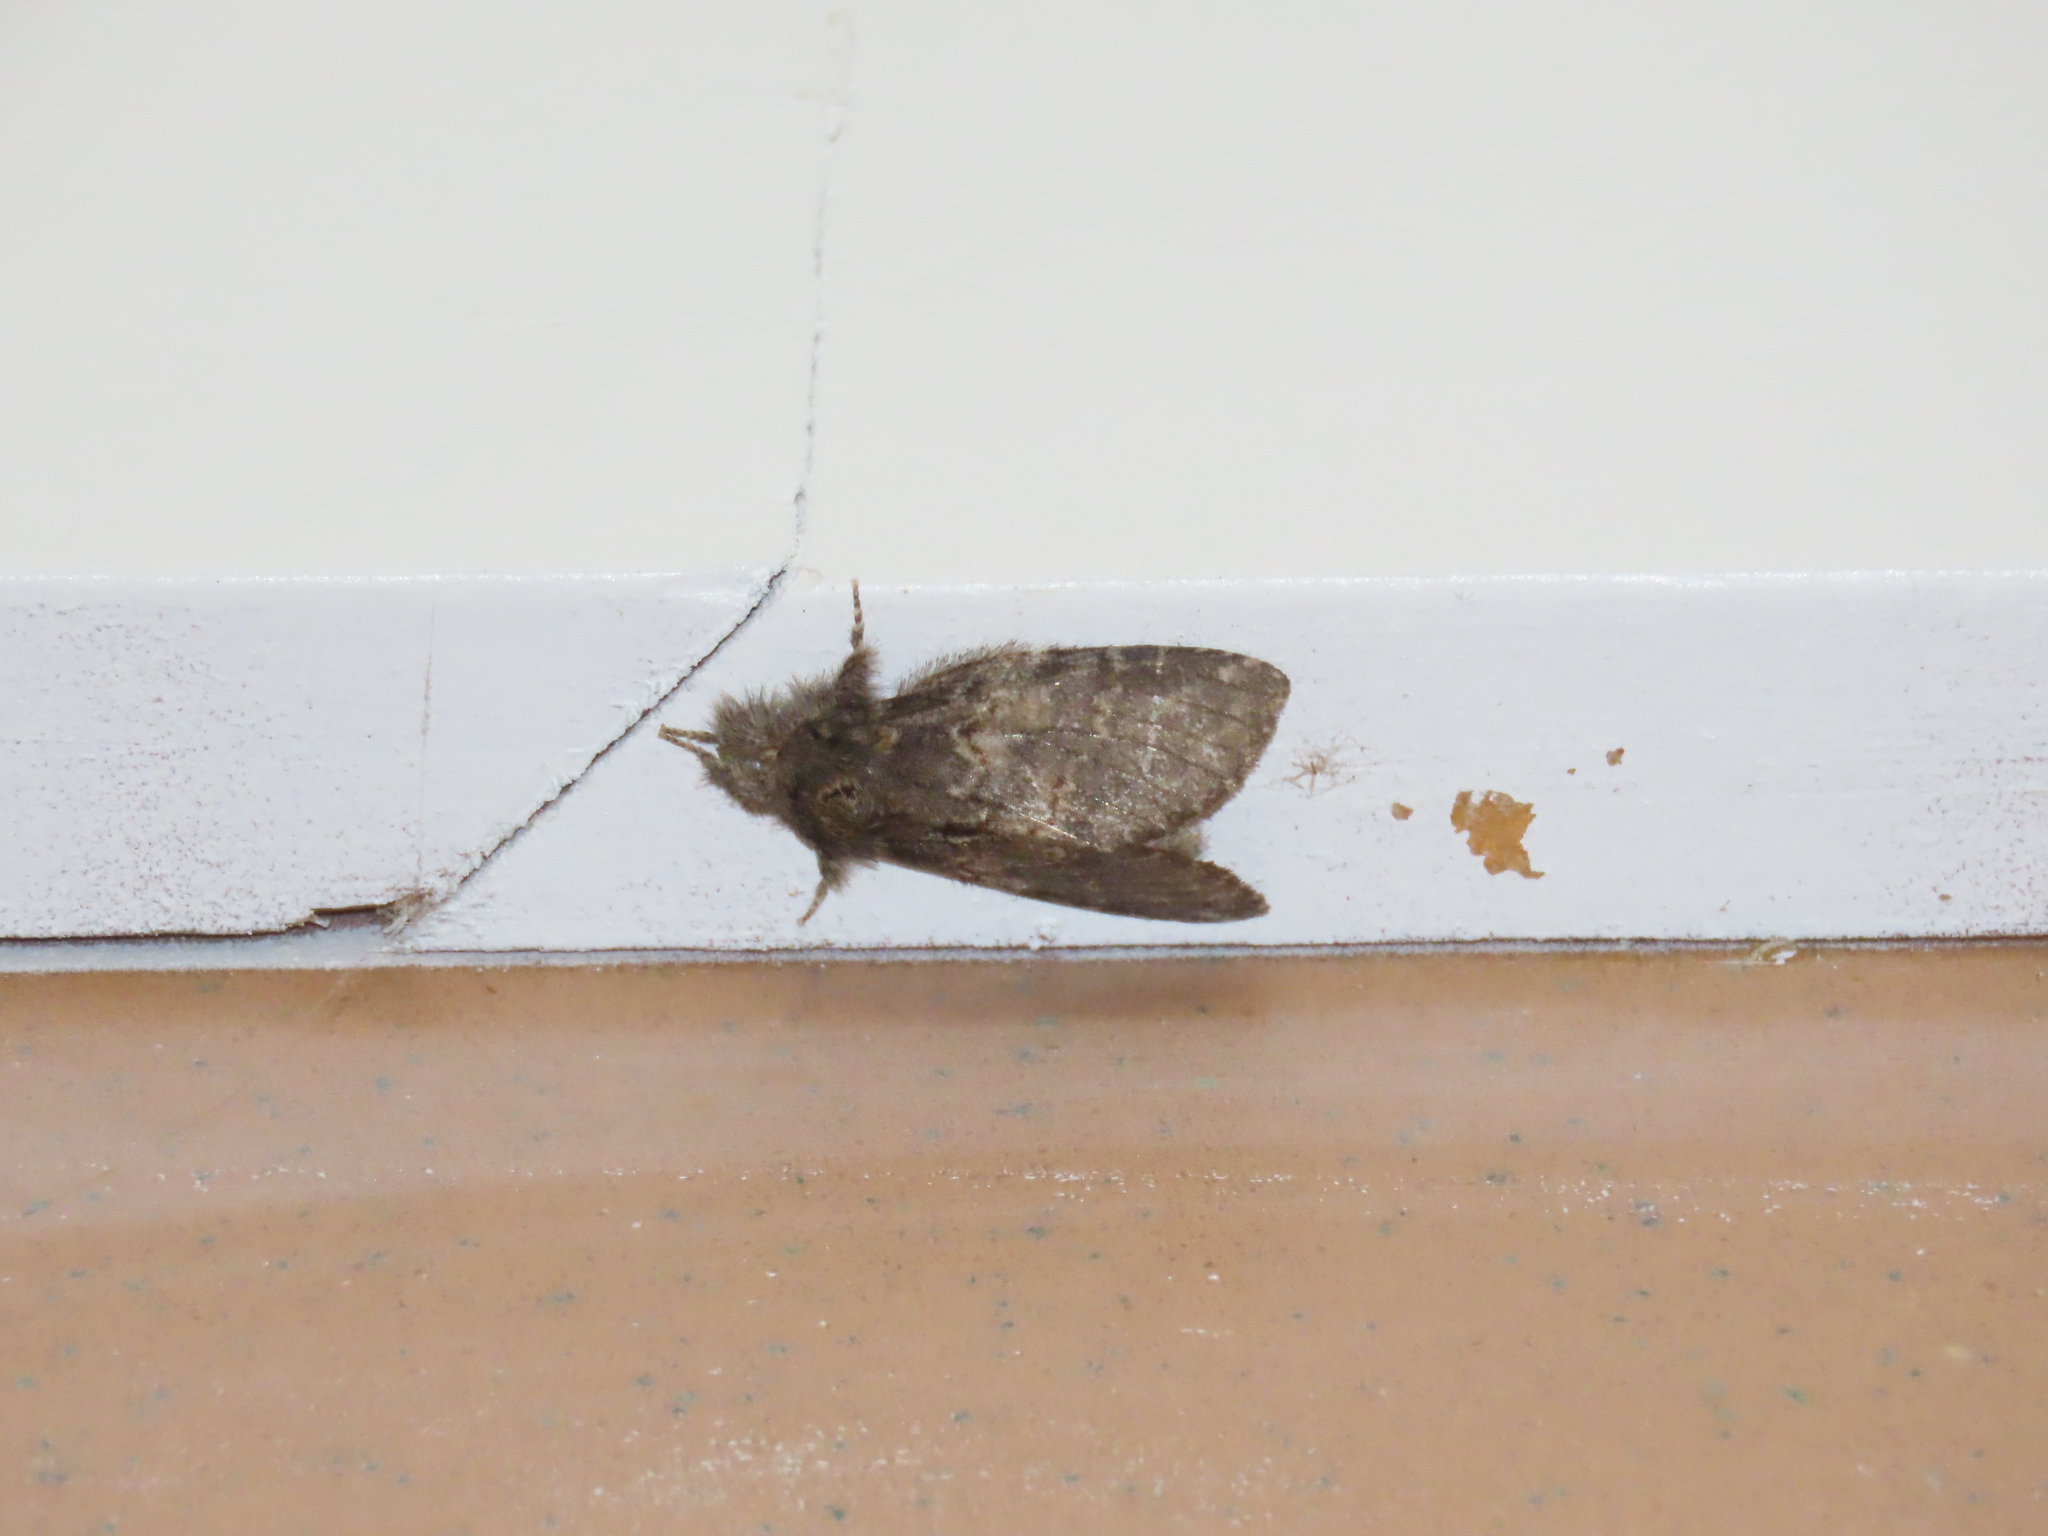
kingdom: Animalia
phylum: Arthropoda
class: Insecta
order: Lepidoptera
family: Notodontidae
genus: Peridea
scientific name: Peridea angulosa
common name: Angulose prominent
